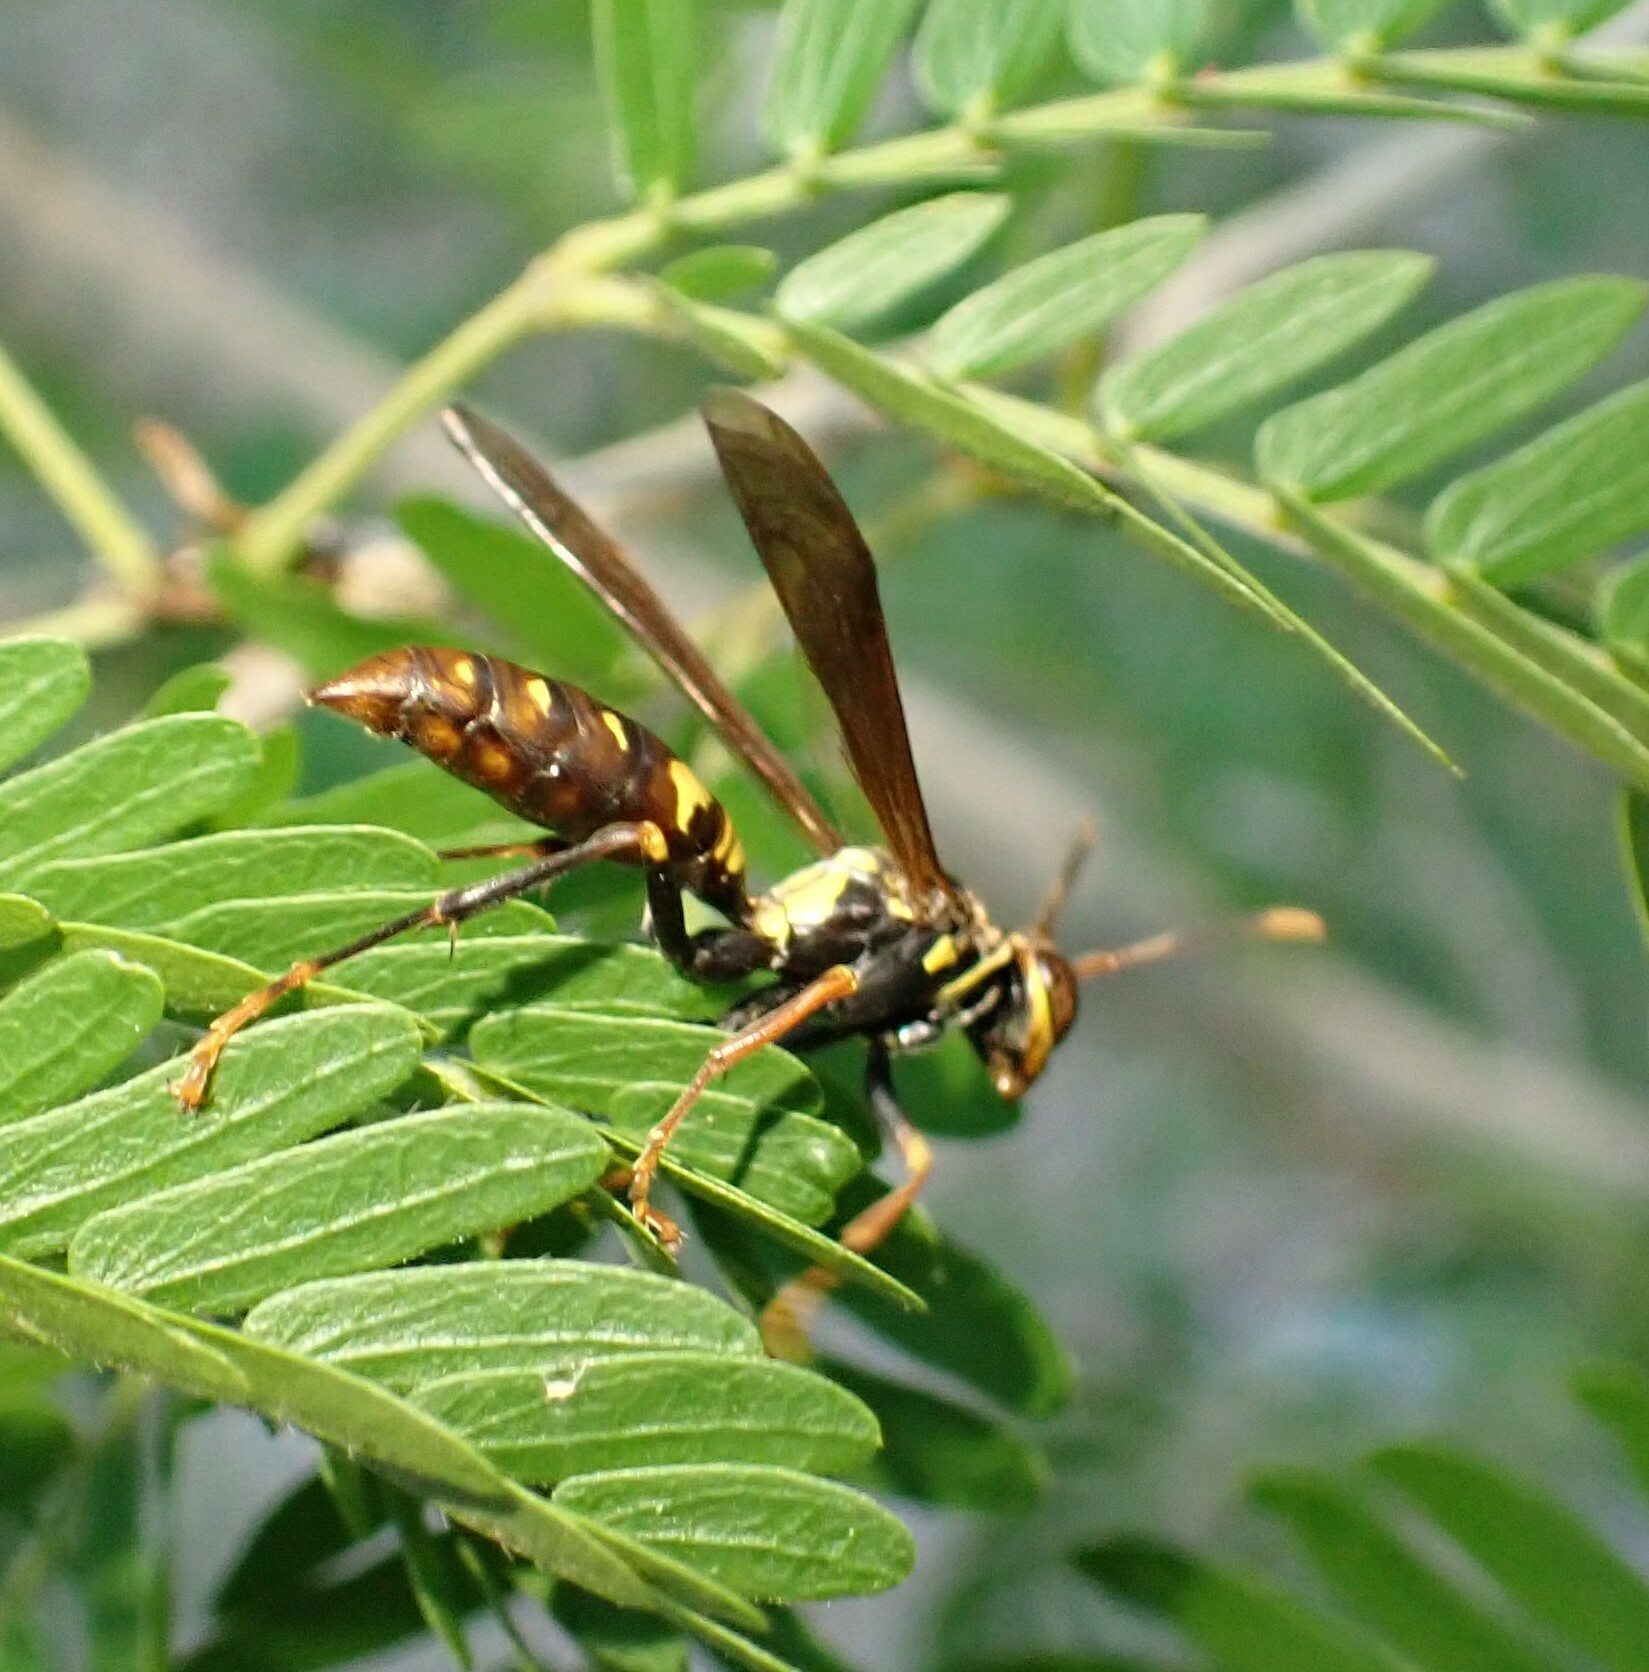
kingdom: Animalia
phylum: Arthropoda
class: Insecta
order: Hymenoptera
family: Eumenidae
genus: Polistes
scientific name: Polistes versicolor
